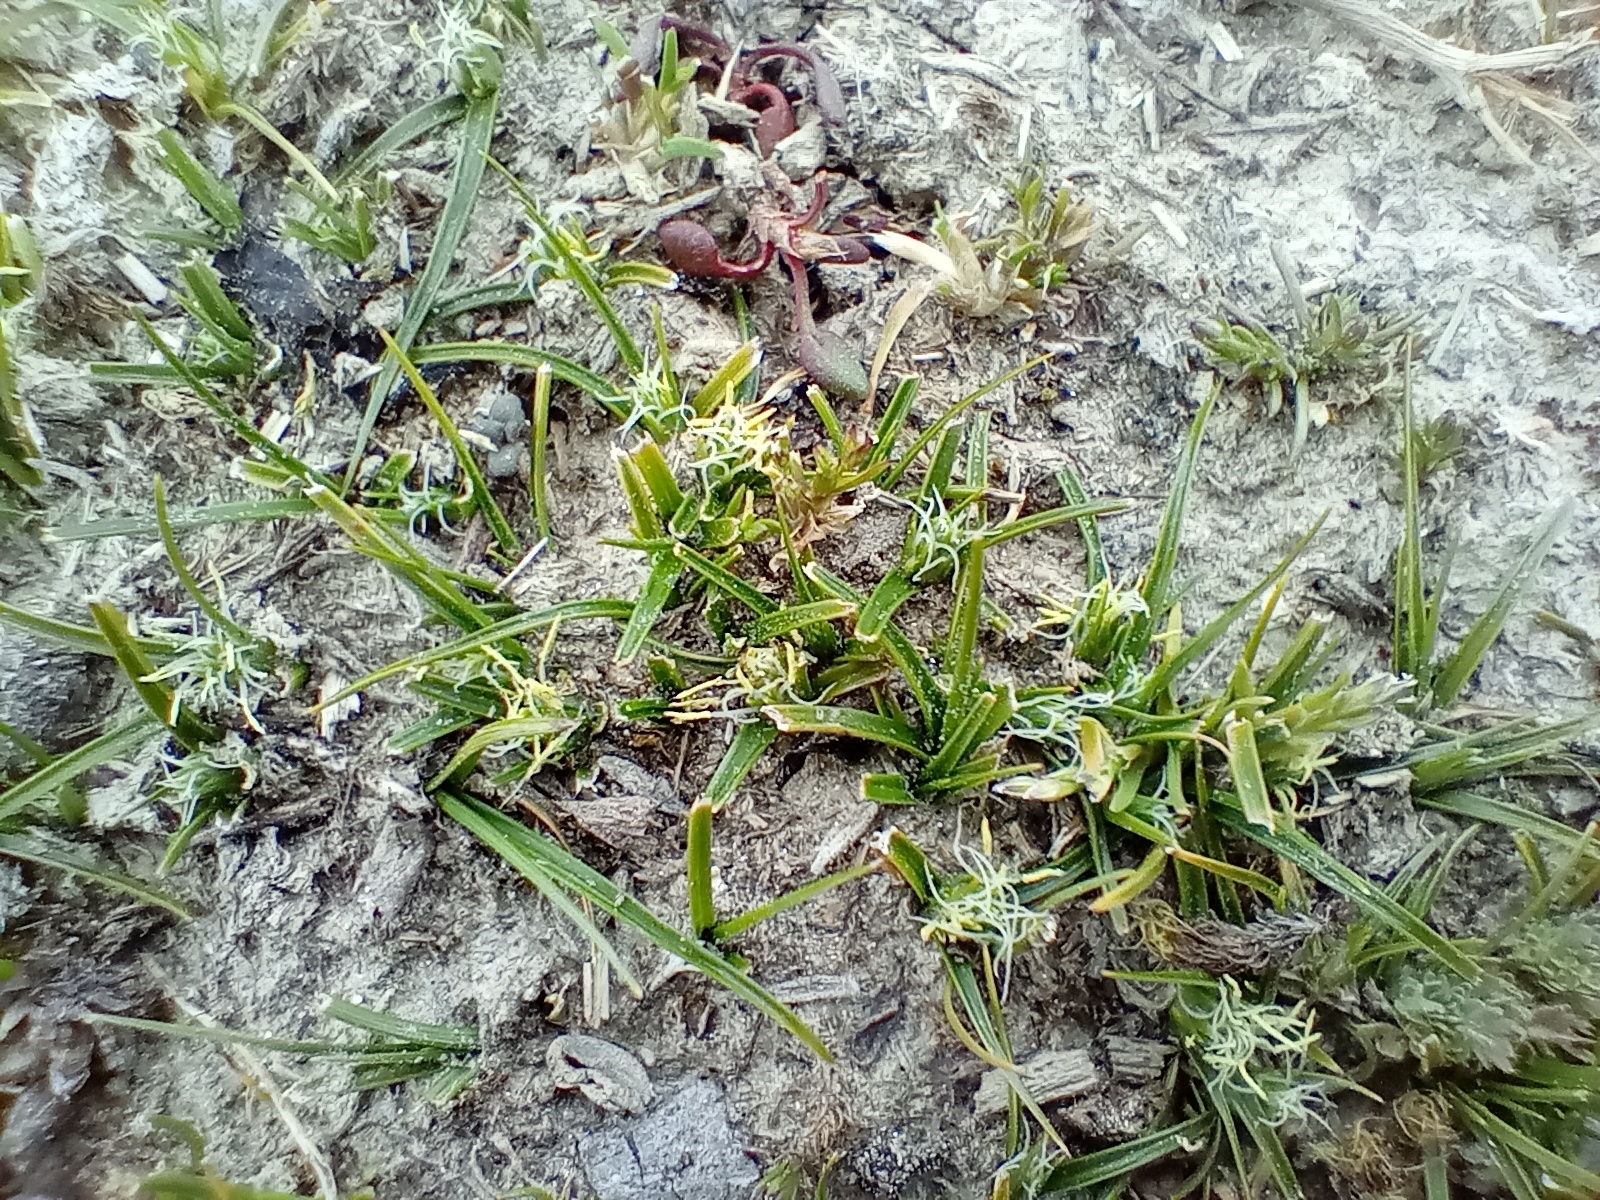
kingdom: Plantae
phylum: Tracheophyta
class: Liliopsida
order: Poales
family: Cyperaceae
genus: Carex
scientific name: Carex resectans
